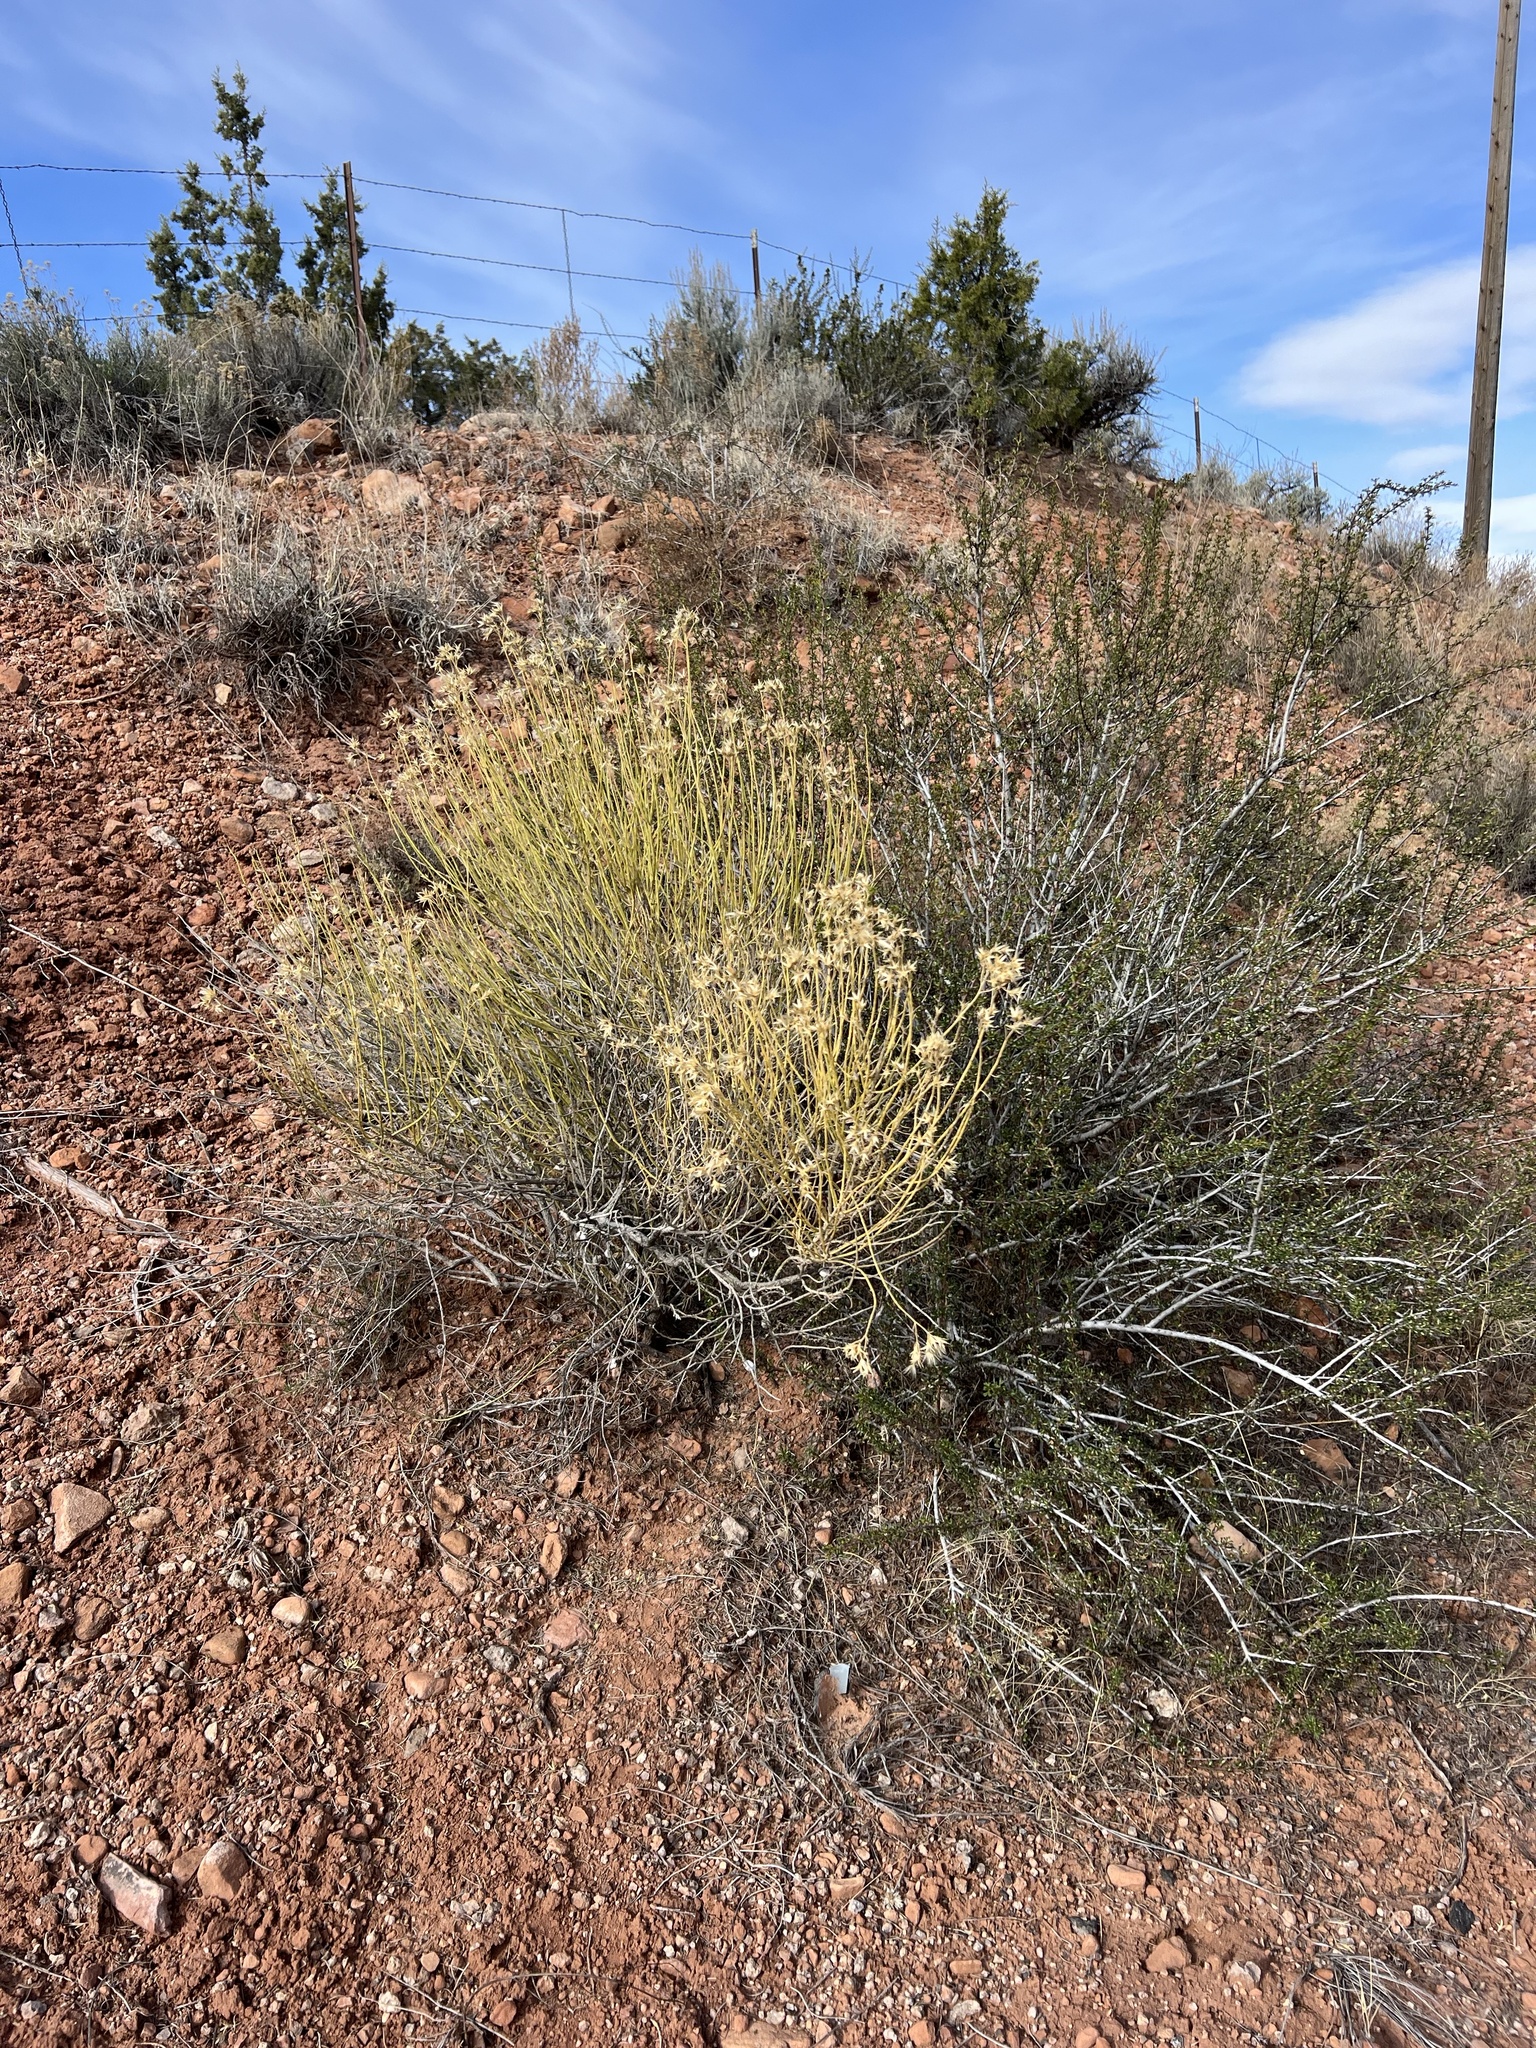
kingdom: Plantae
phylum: Tracheophyta
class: Gnetopsida
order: Ephedrales
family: Ephedraceae
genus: Ephedra
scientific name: Ephedra viridis
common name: Green ephedra
